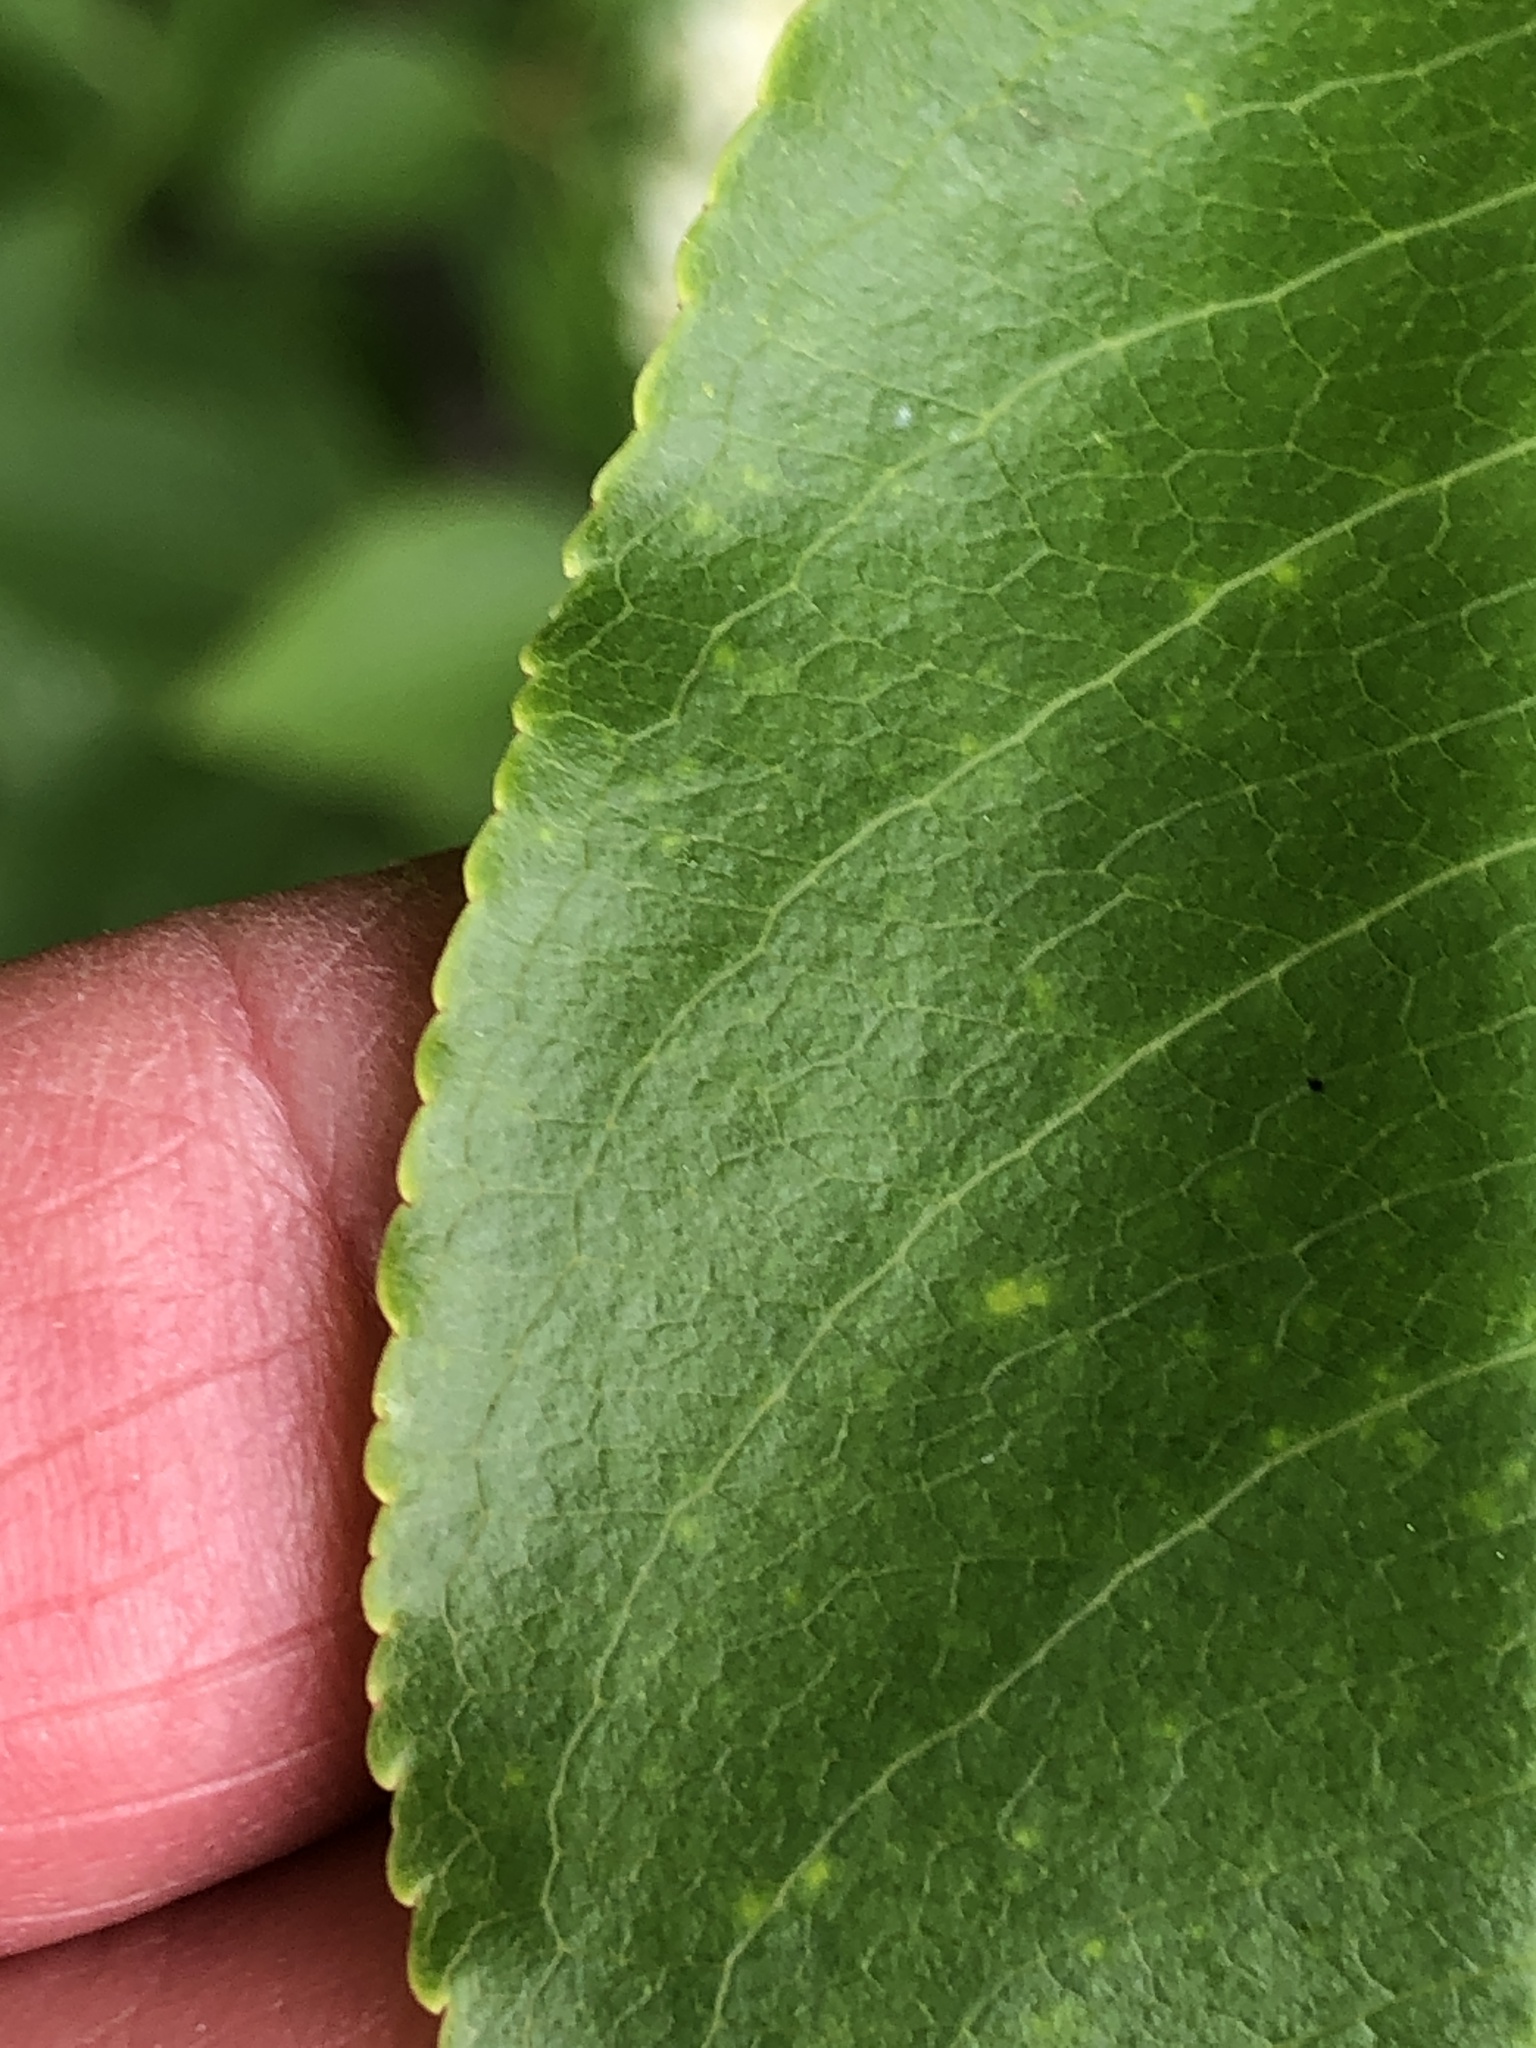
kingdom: Plantae
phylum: Tracheophyta
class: Magnoliopsida
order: Rosales
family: Rosaceae
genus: Prunus
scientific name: Prunus serotina
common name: Black cherry
